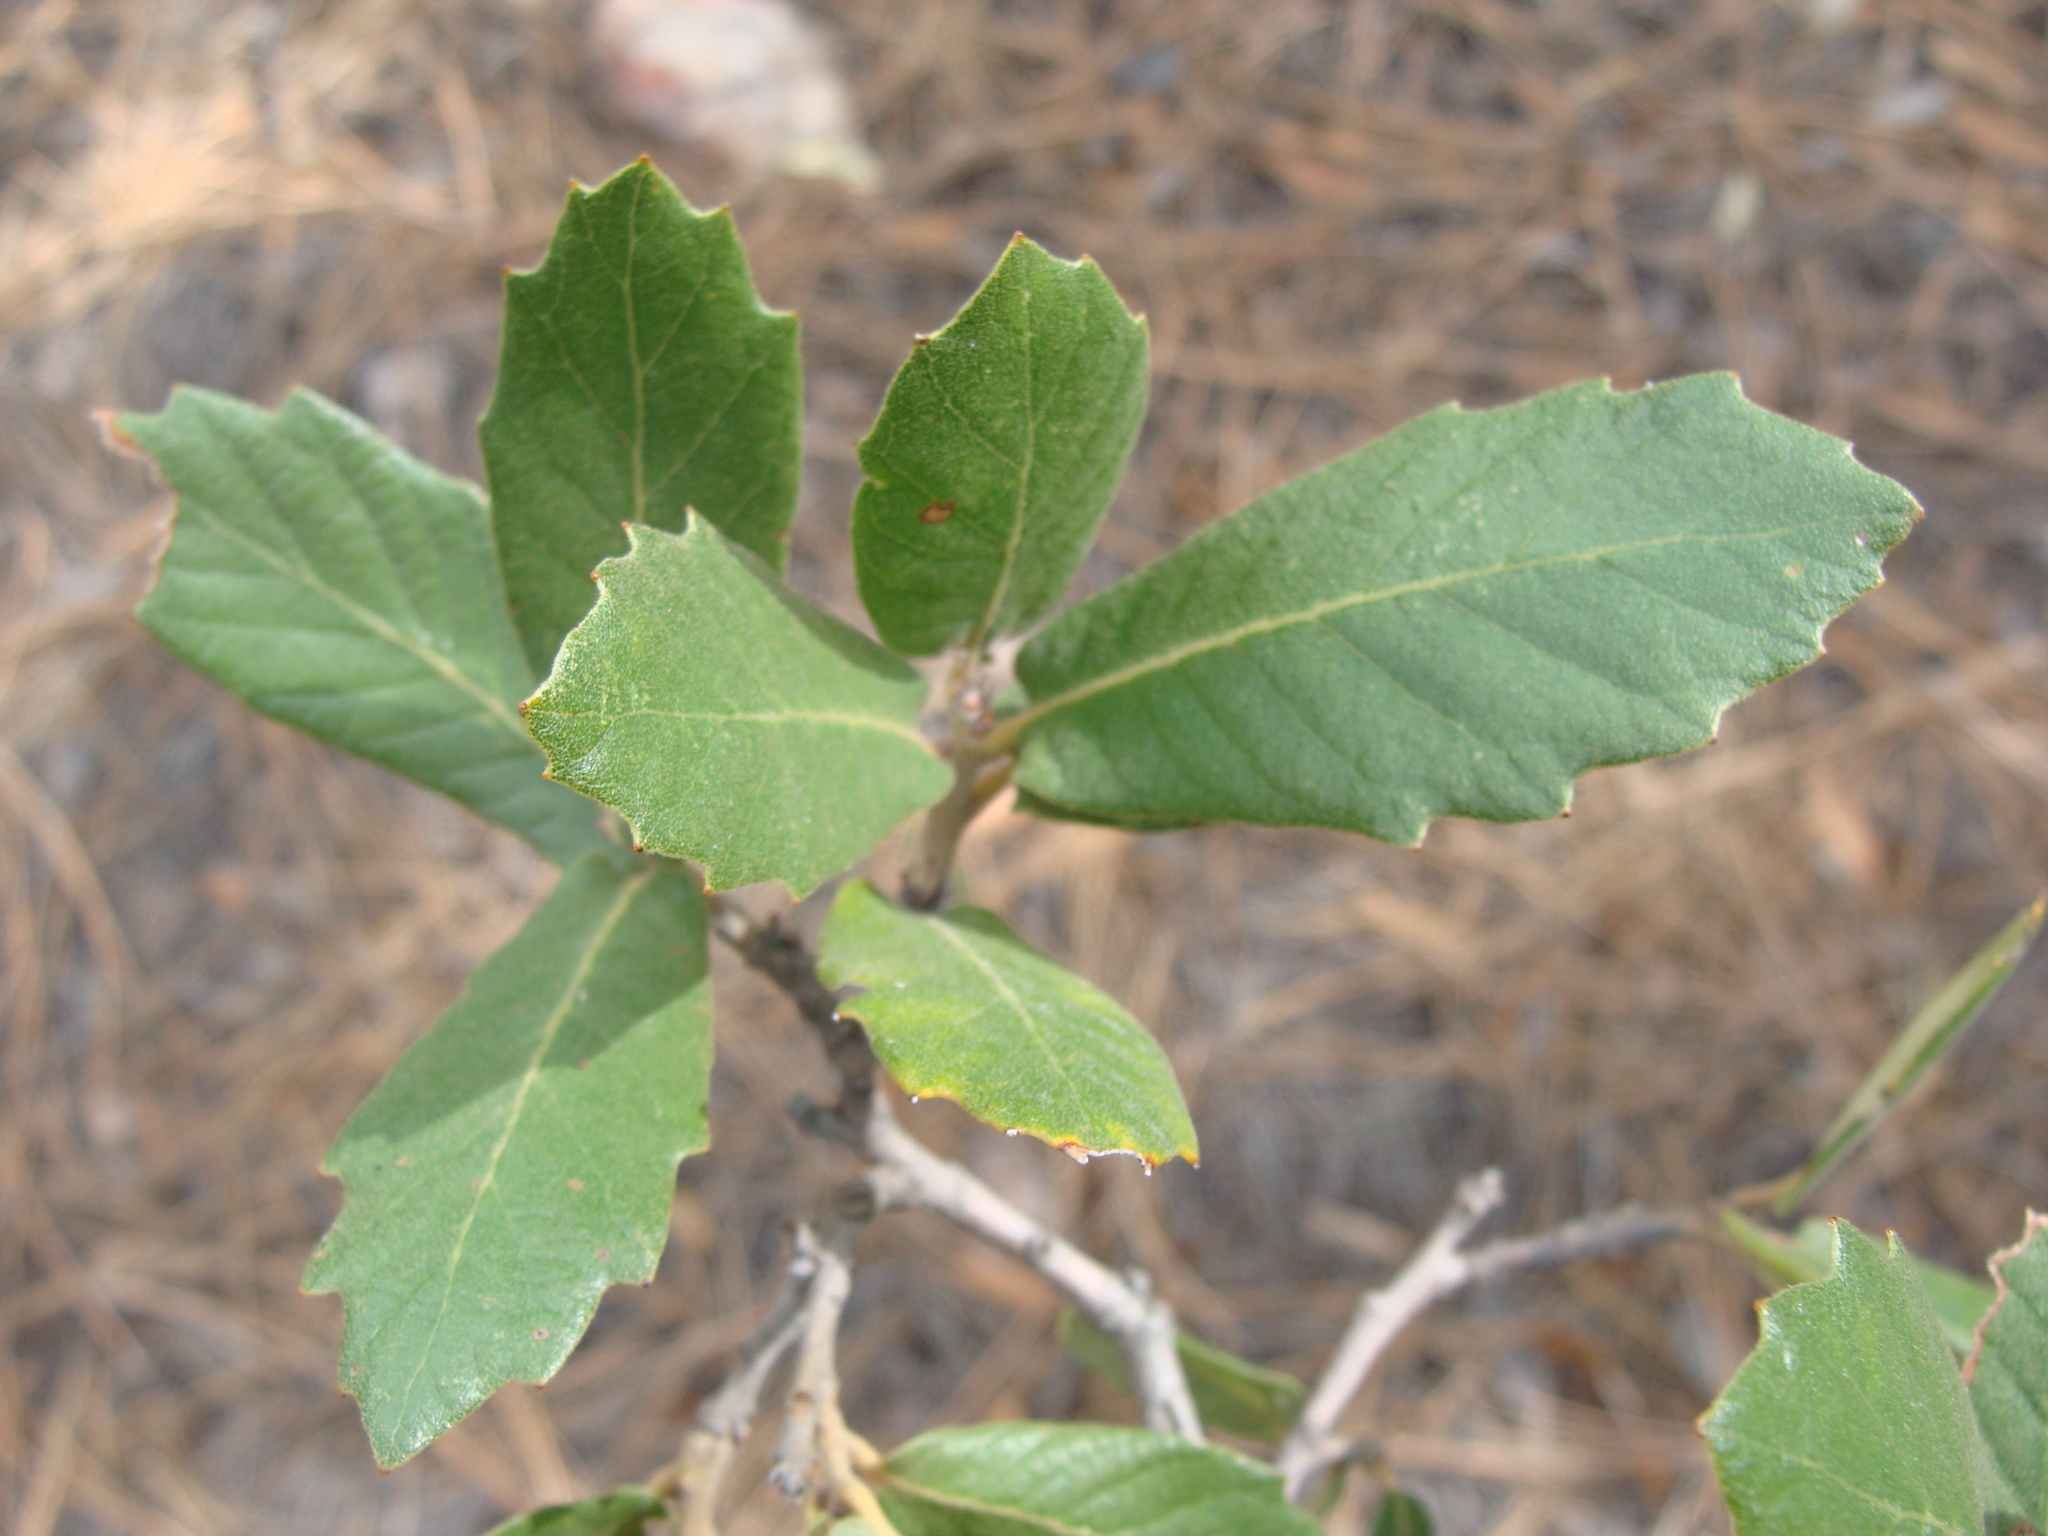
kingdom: Plantae
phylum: Tracheophyta
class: Magnoliopsida
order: Fagales
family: Fagaceae
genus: Quercus
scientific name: Quercus arizonica
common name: Arizona white oak
